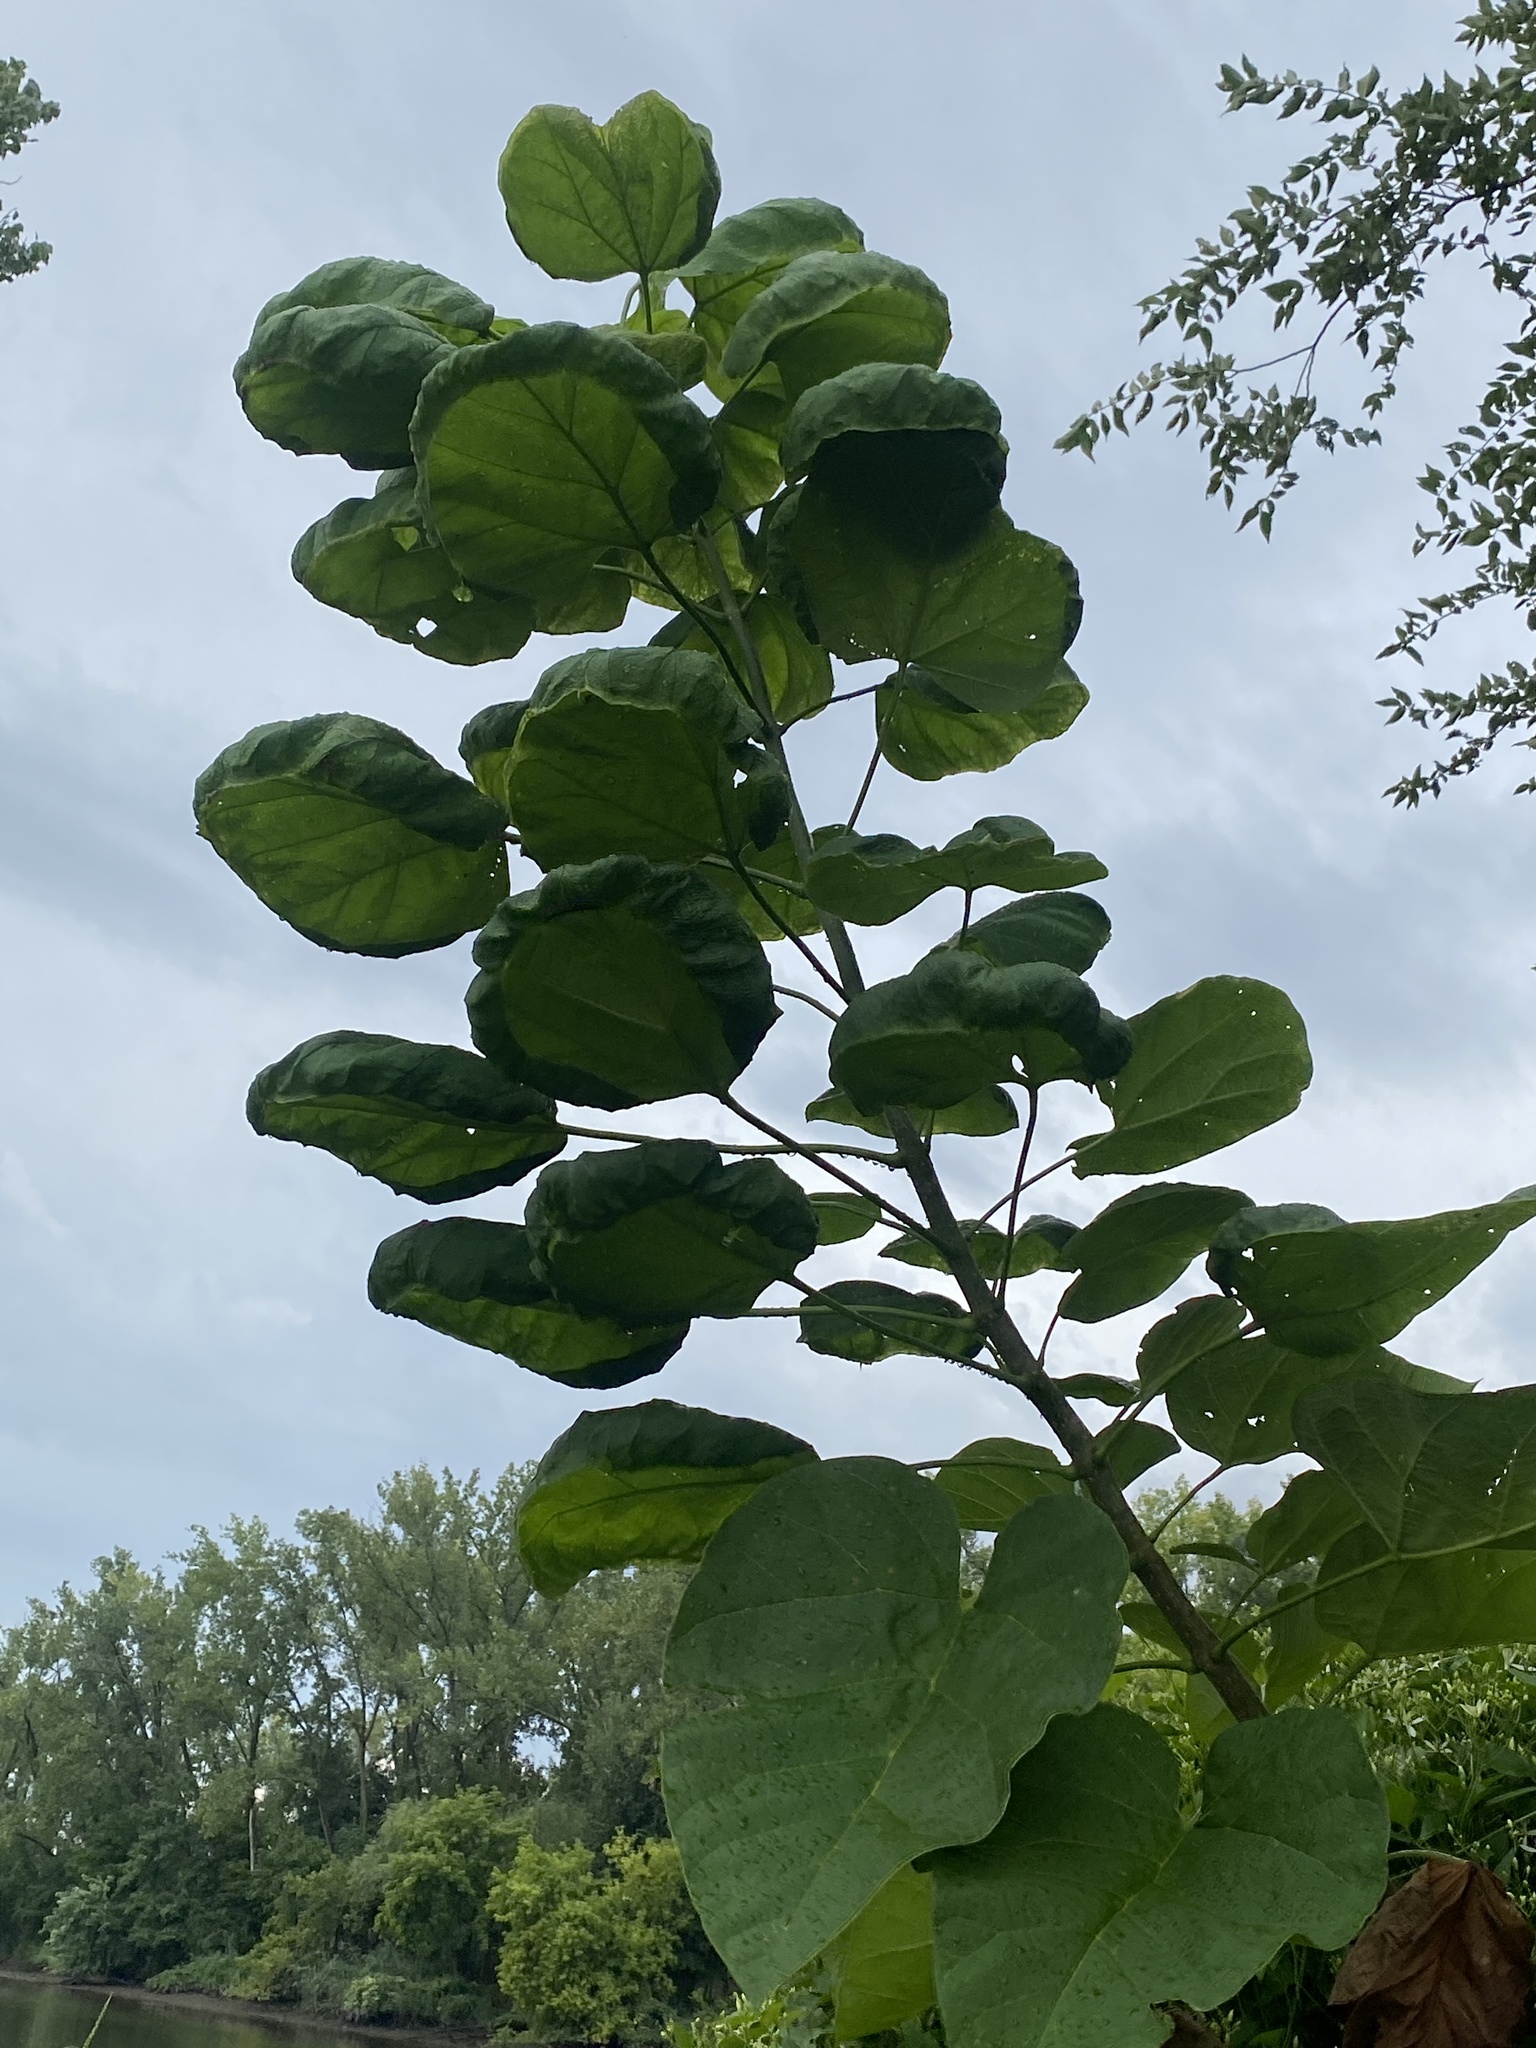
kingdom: Plantae
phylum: Tracheophyta
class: Magnoliopsida
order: Lamiales
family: Paulowniaceae
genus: Paulownia
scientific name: Paulownia tomentosa
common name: Foxglove-tree
